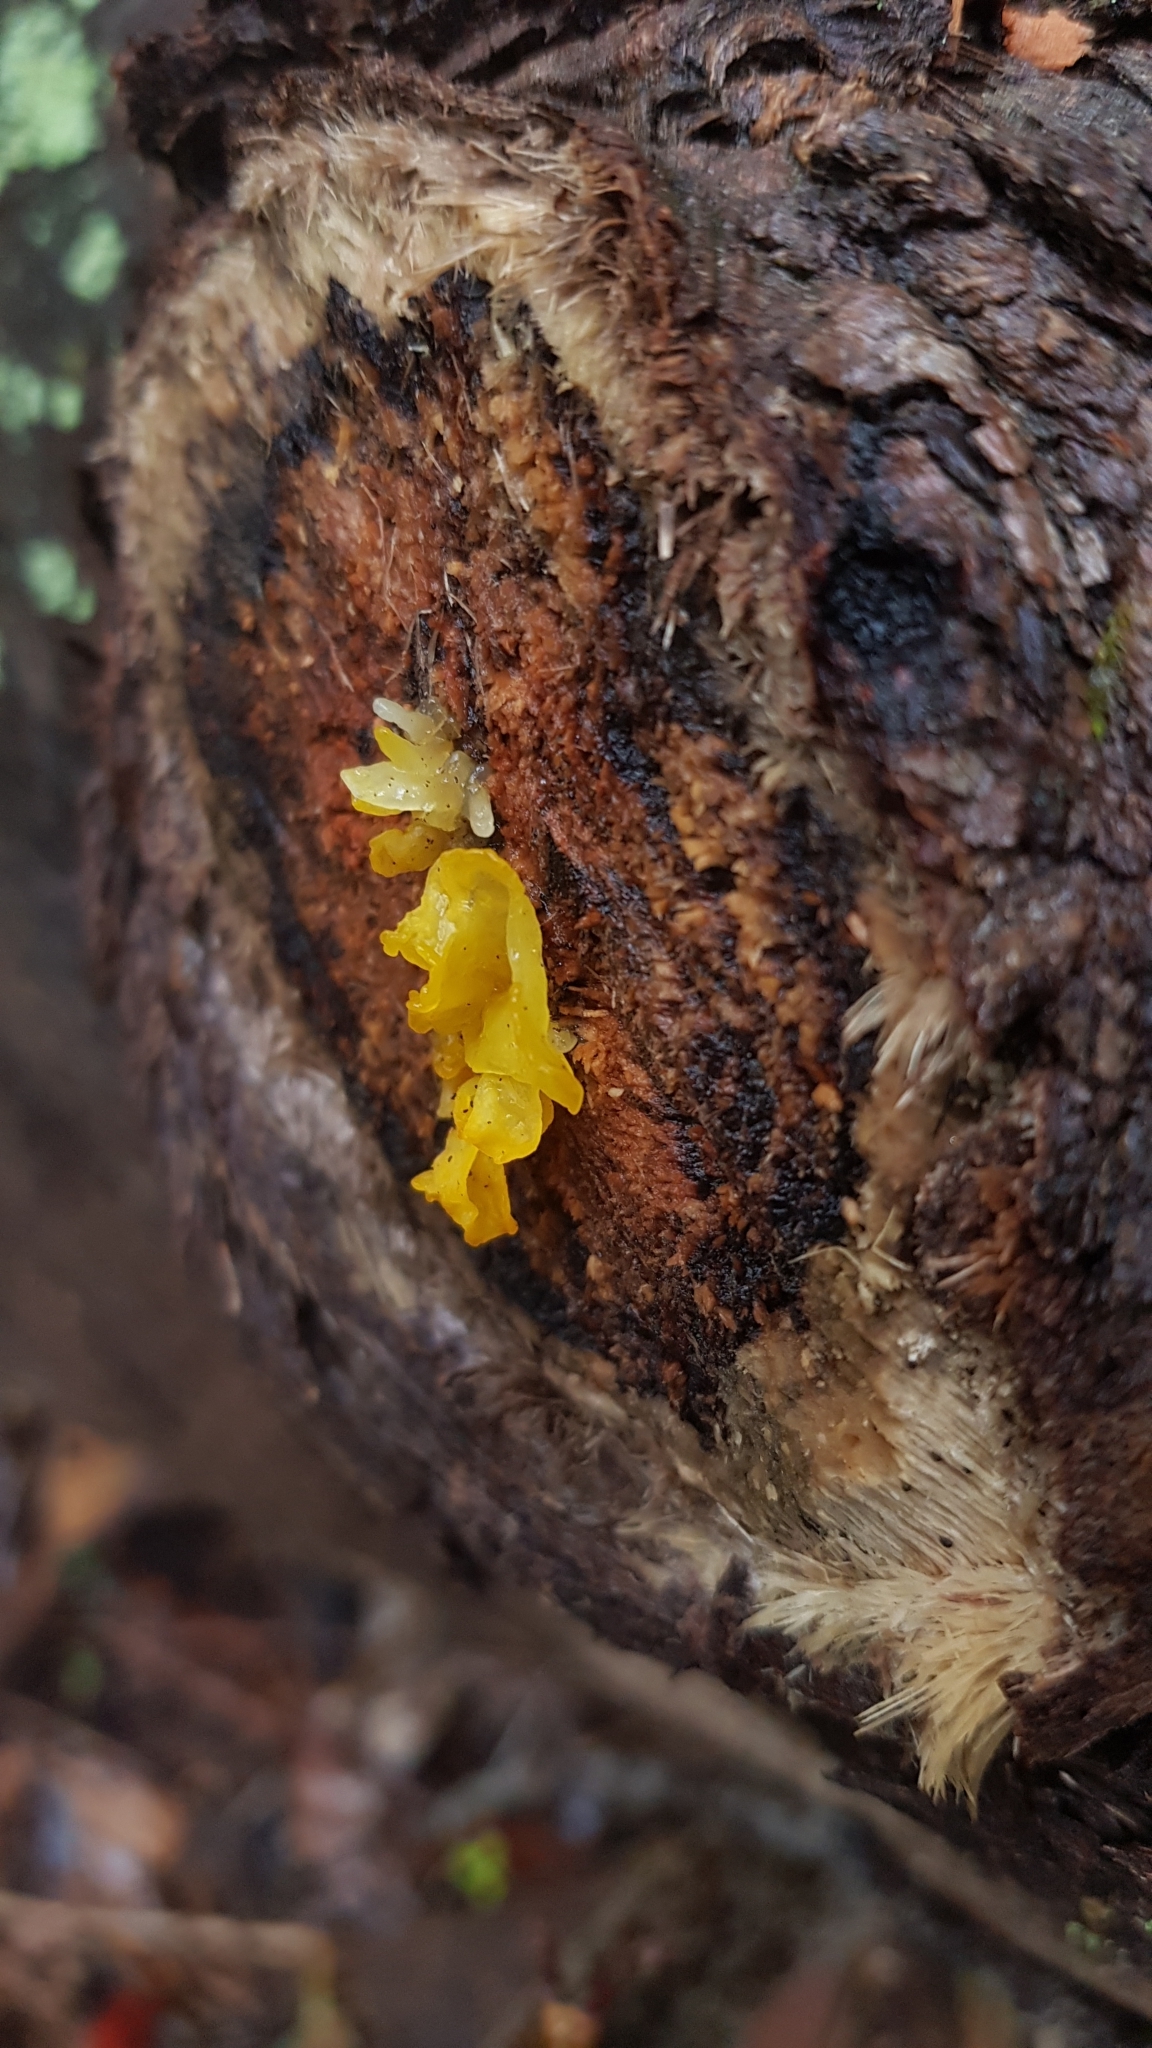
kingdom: Fungi
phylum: Basidiomycota
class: Tremellomycetes
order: Tremellales
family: Tremellaceae
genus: Tremella
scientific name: Tremella mesenterica
